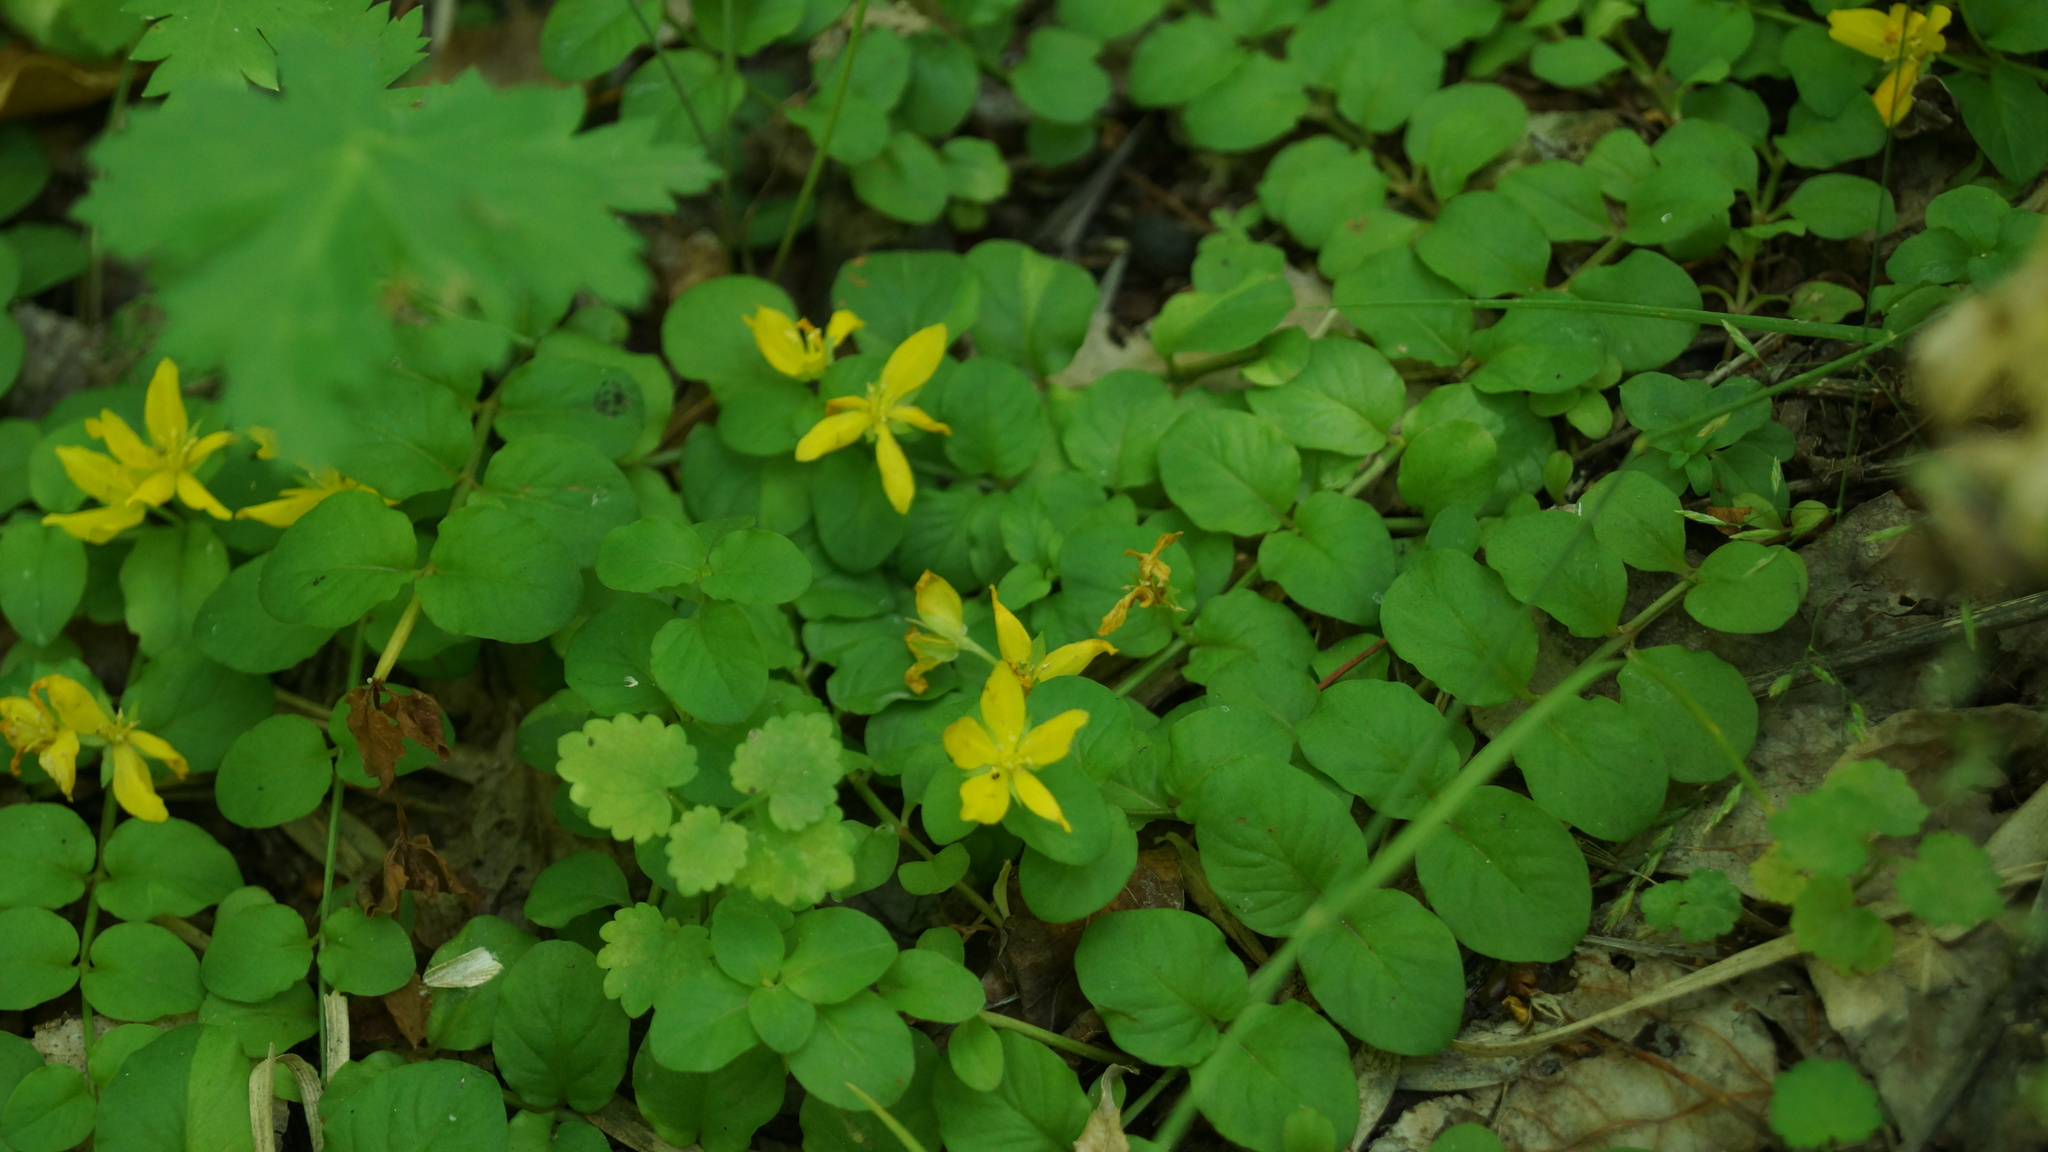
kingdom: Plantae
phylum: Tracheophyta
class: Magnoliopsida
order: Ericales
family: Primulaceae
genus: Lysimachia
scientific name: Lysimachia nummularia
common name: Moneywort
